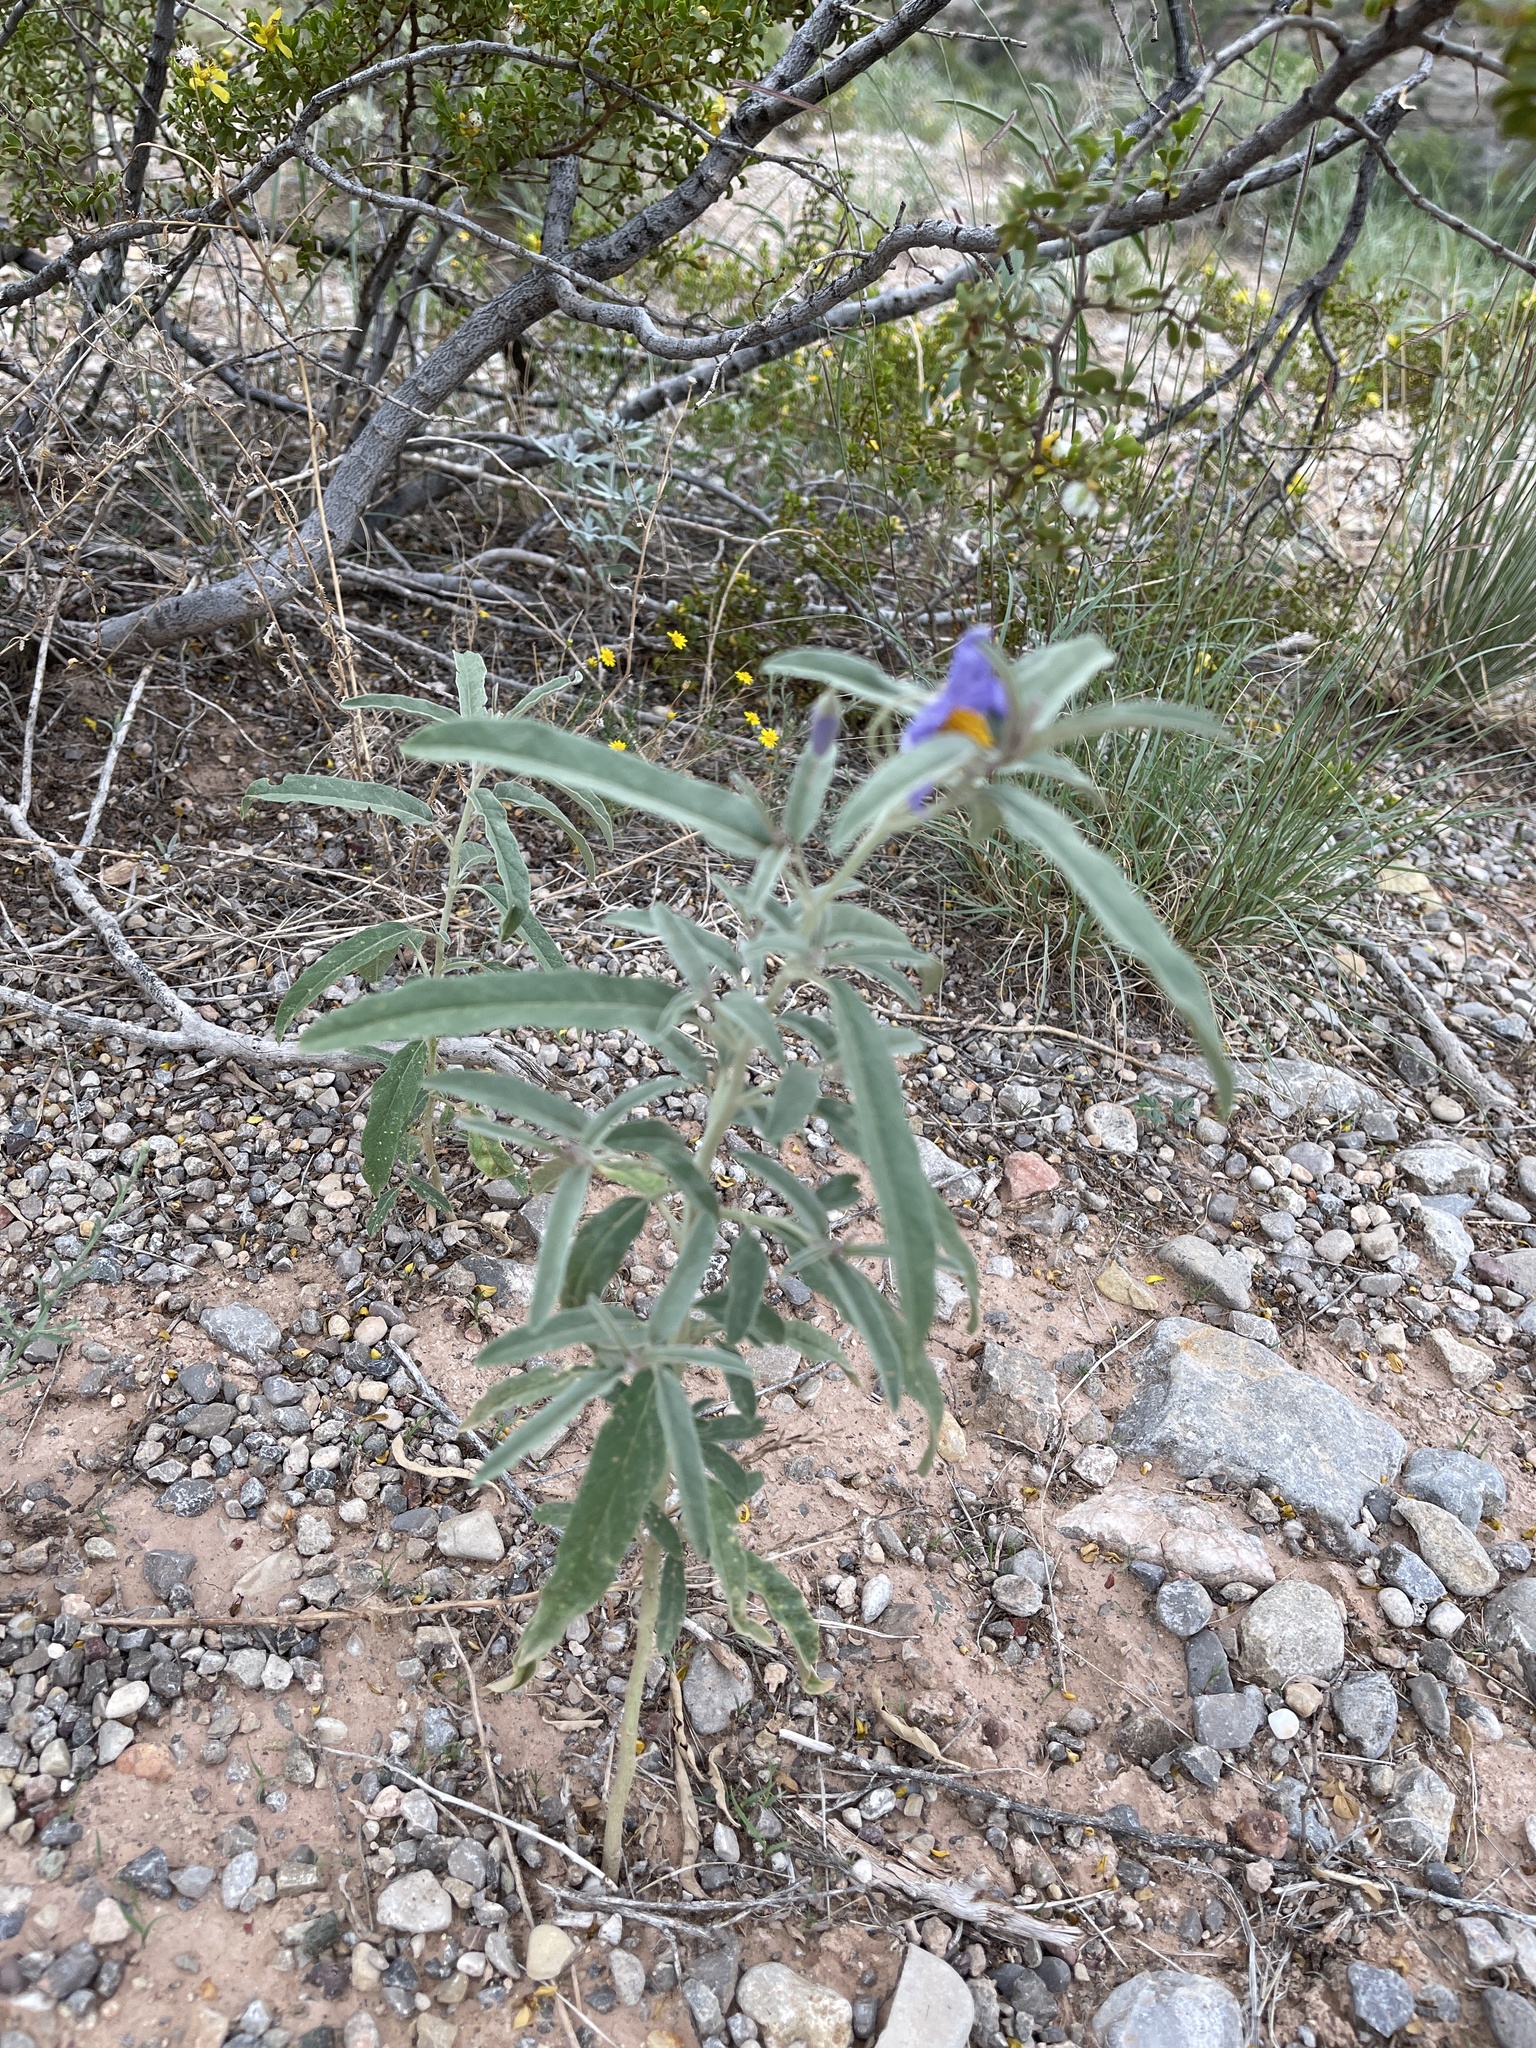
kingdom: Plantae
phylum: Tracheophyta
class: Magnoliopsida
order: Solanales
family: Solanaceae
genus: Solanum
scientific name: Solanum elaeagnifolium
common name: Silverleaf nightshade
